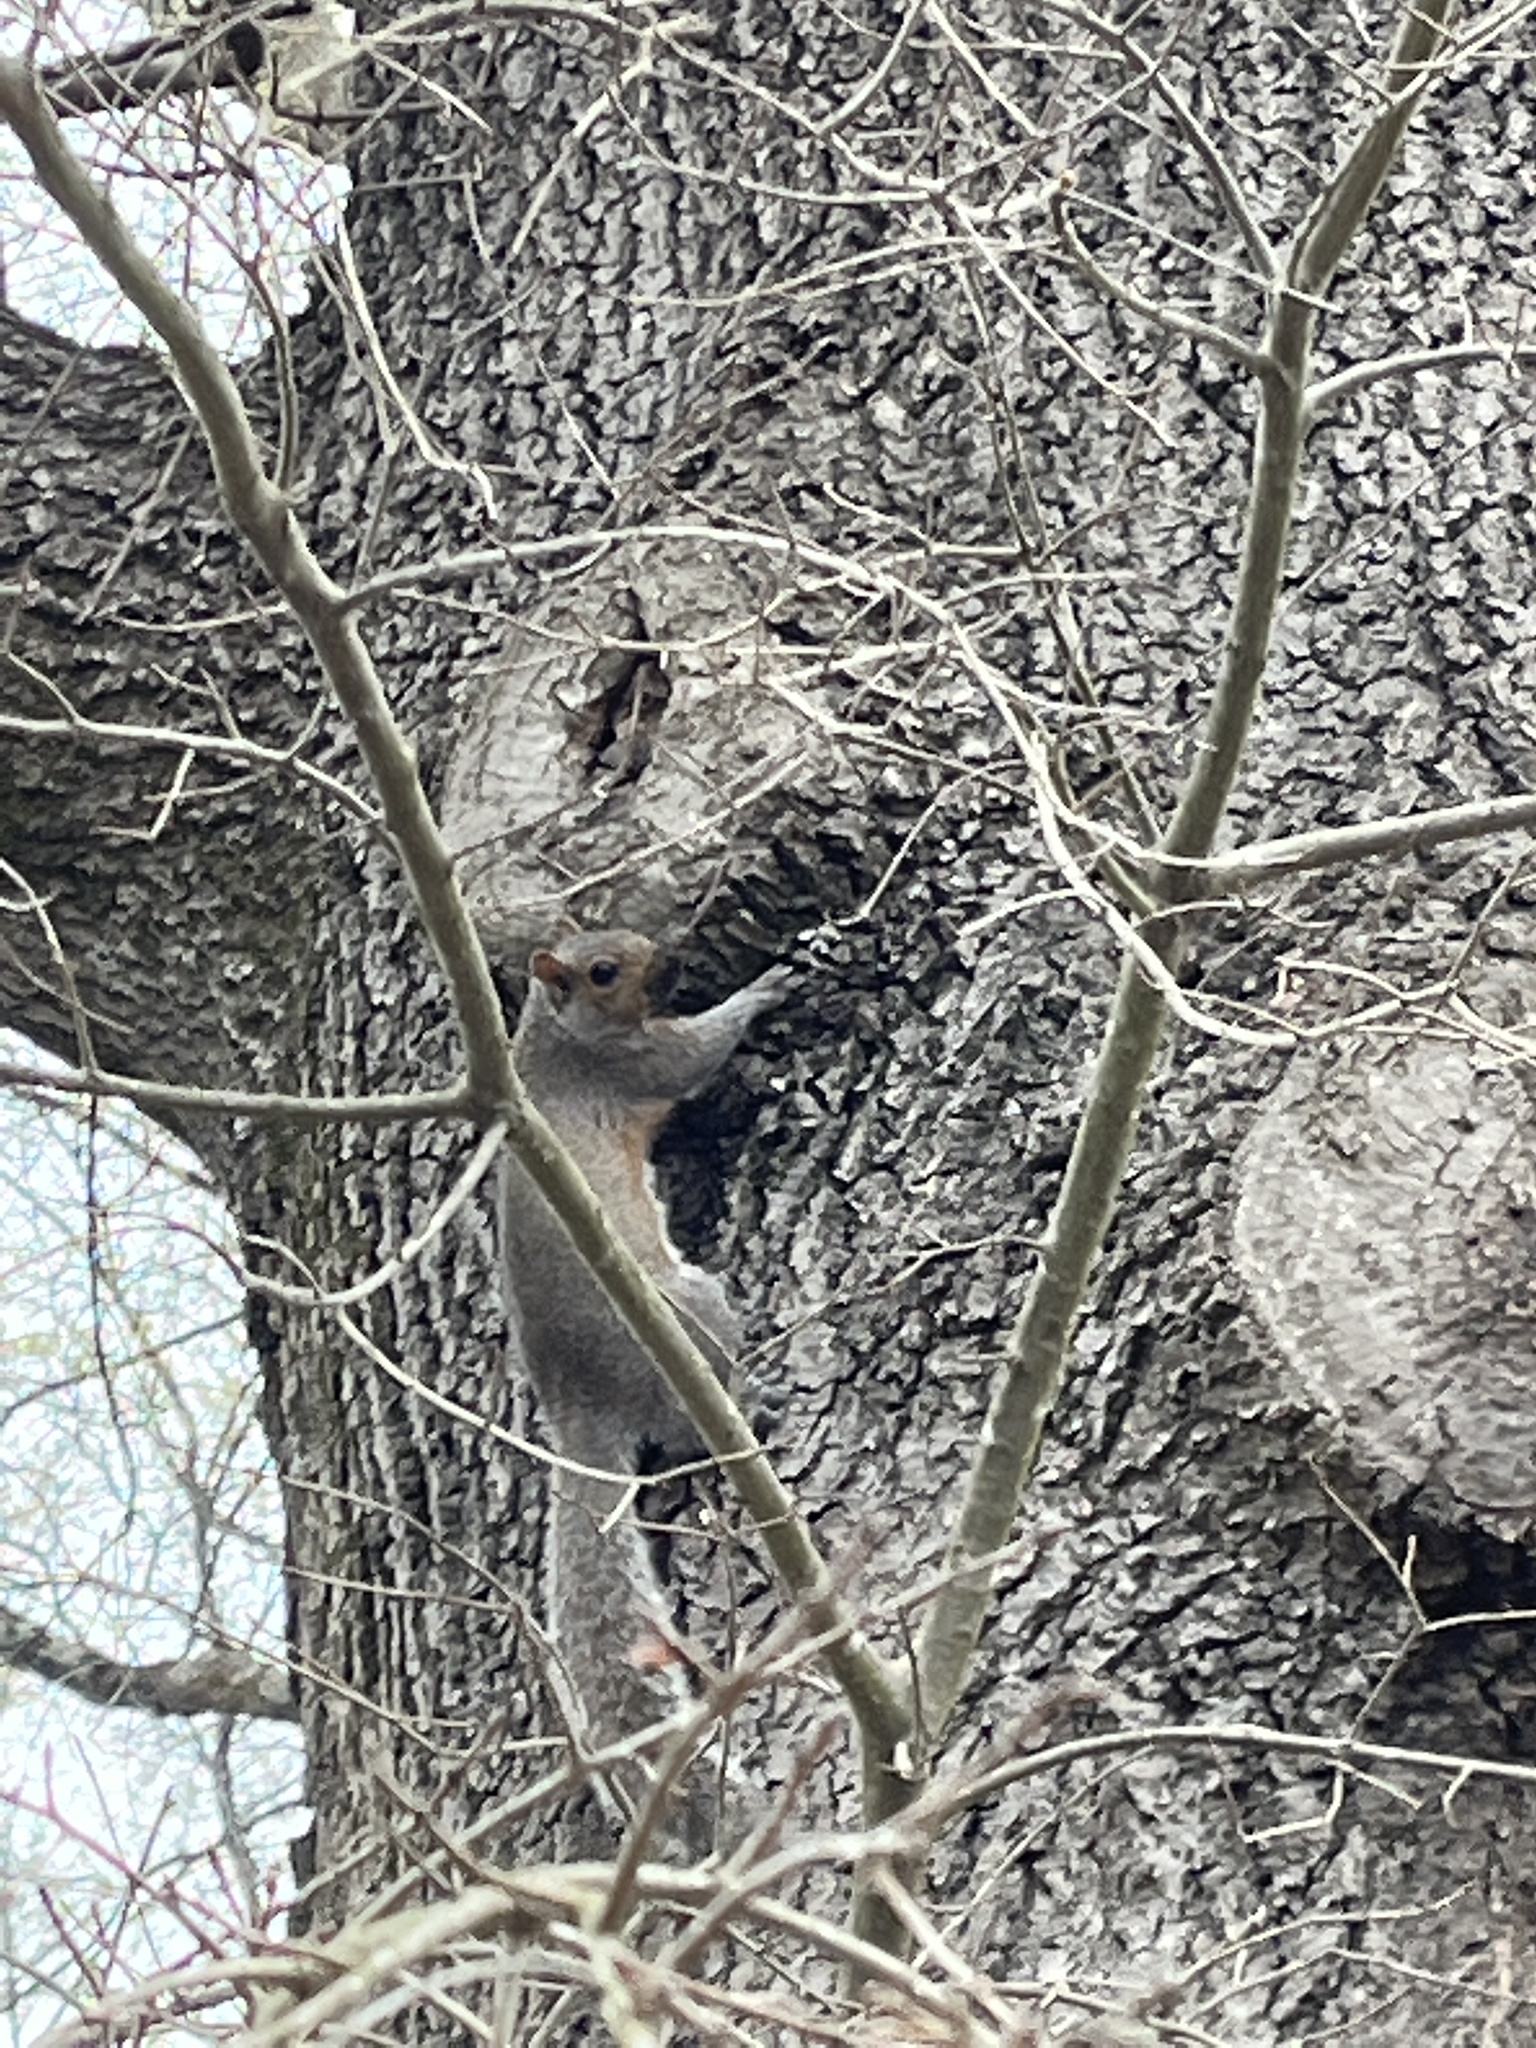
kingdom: Animalia
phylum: Chordata
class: Mammalia
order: Rodentia
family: Sciuridae
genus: Sciurus
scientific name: Sciurus carolinensis
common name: Eastern gray squirrel
